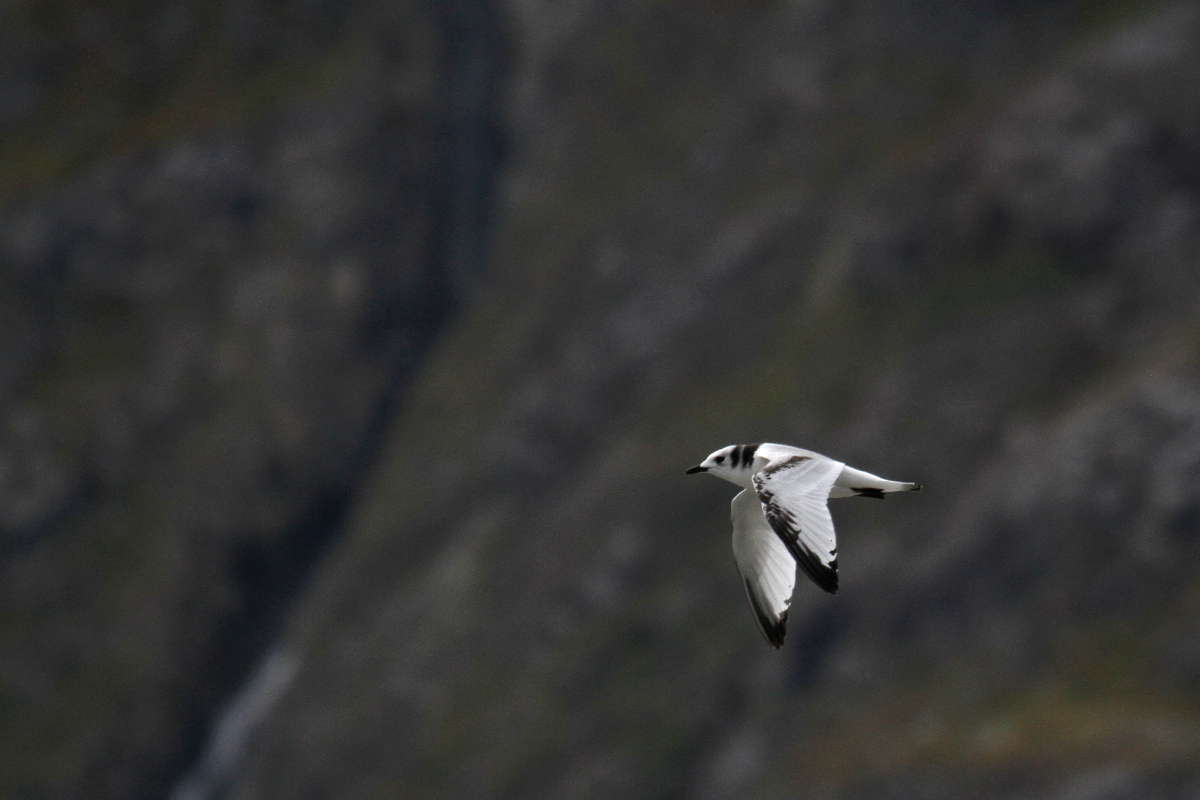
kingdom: Animalia
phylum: Chordata
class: Aves
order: Charadriiformes
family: Laridae
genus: Rissa
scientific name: Rissa tridactyla
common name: Black-legged kittiwake
